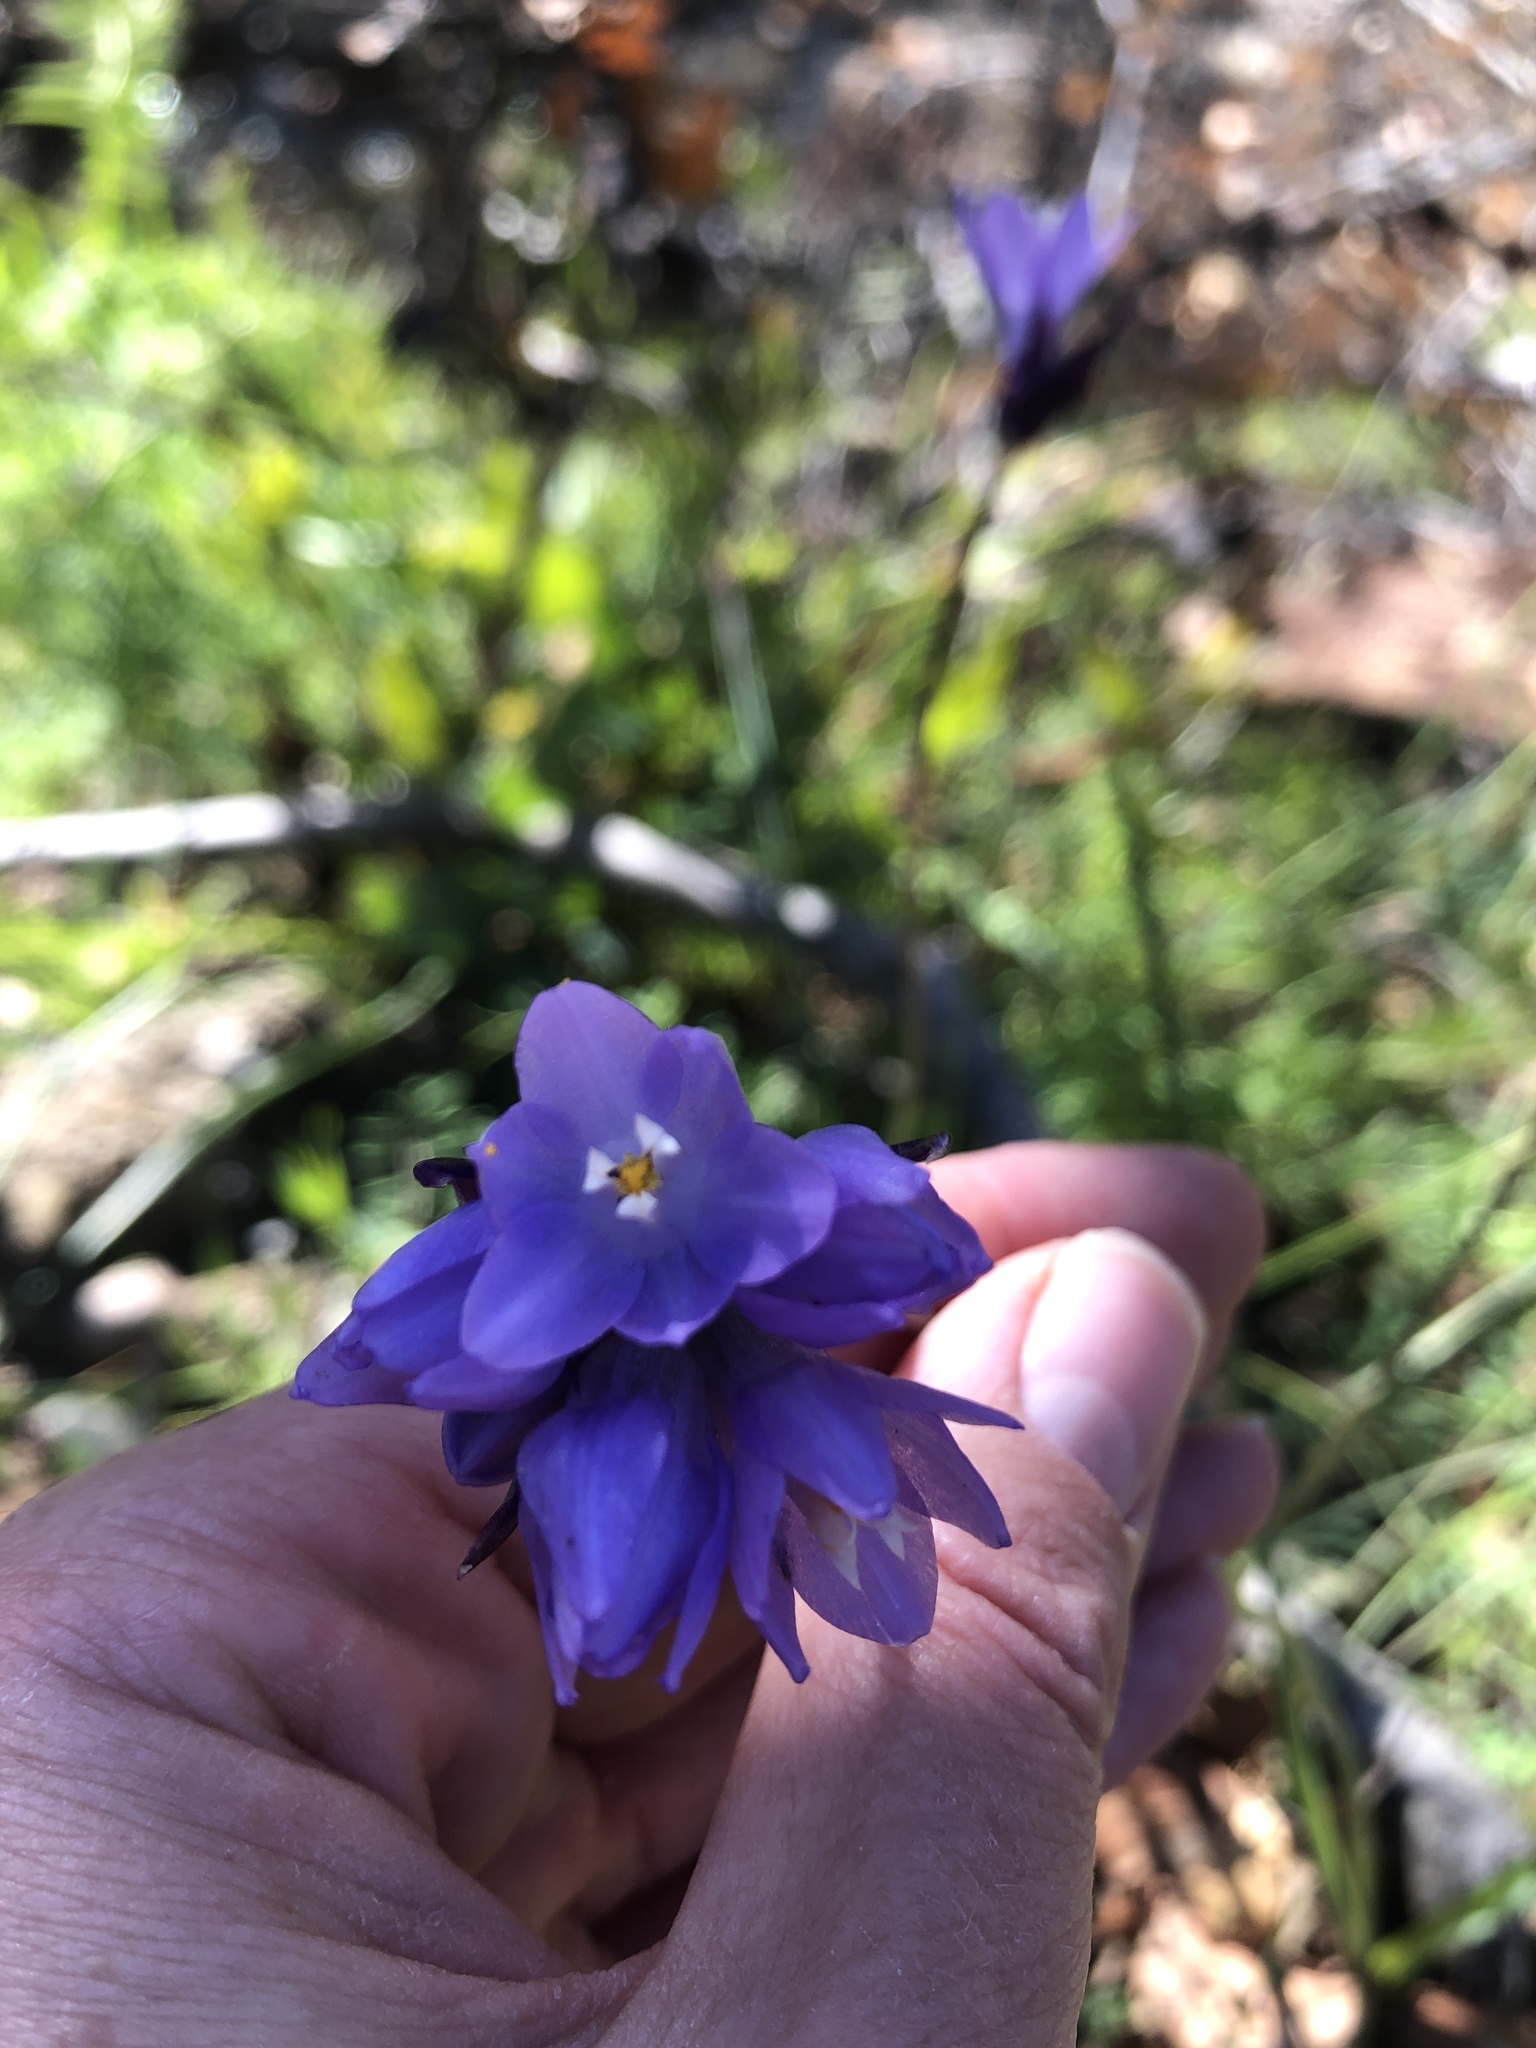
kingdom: Plantae
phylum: Tracheophyta
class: Liliopsida
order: Asparagales
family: Asparagaceae
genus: Dipterostemon
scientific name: Dipterostemon capitatus
